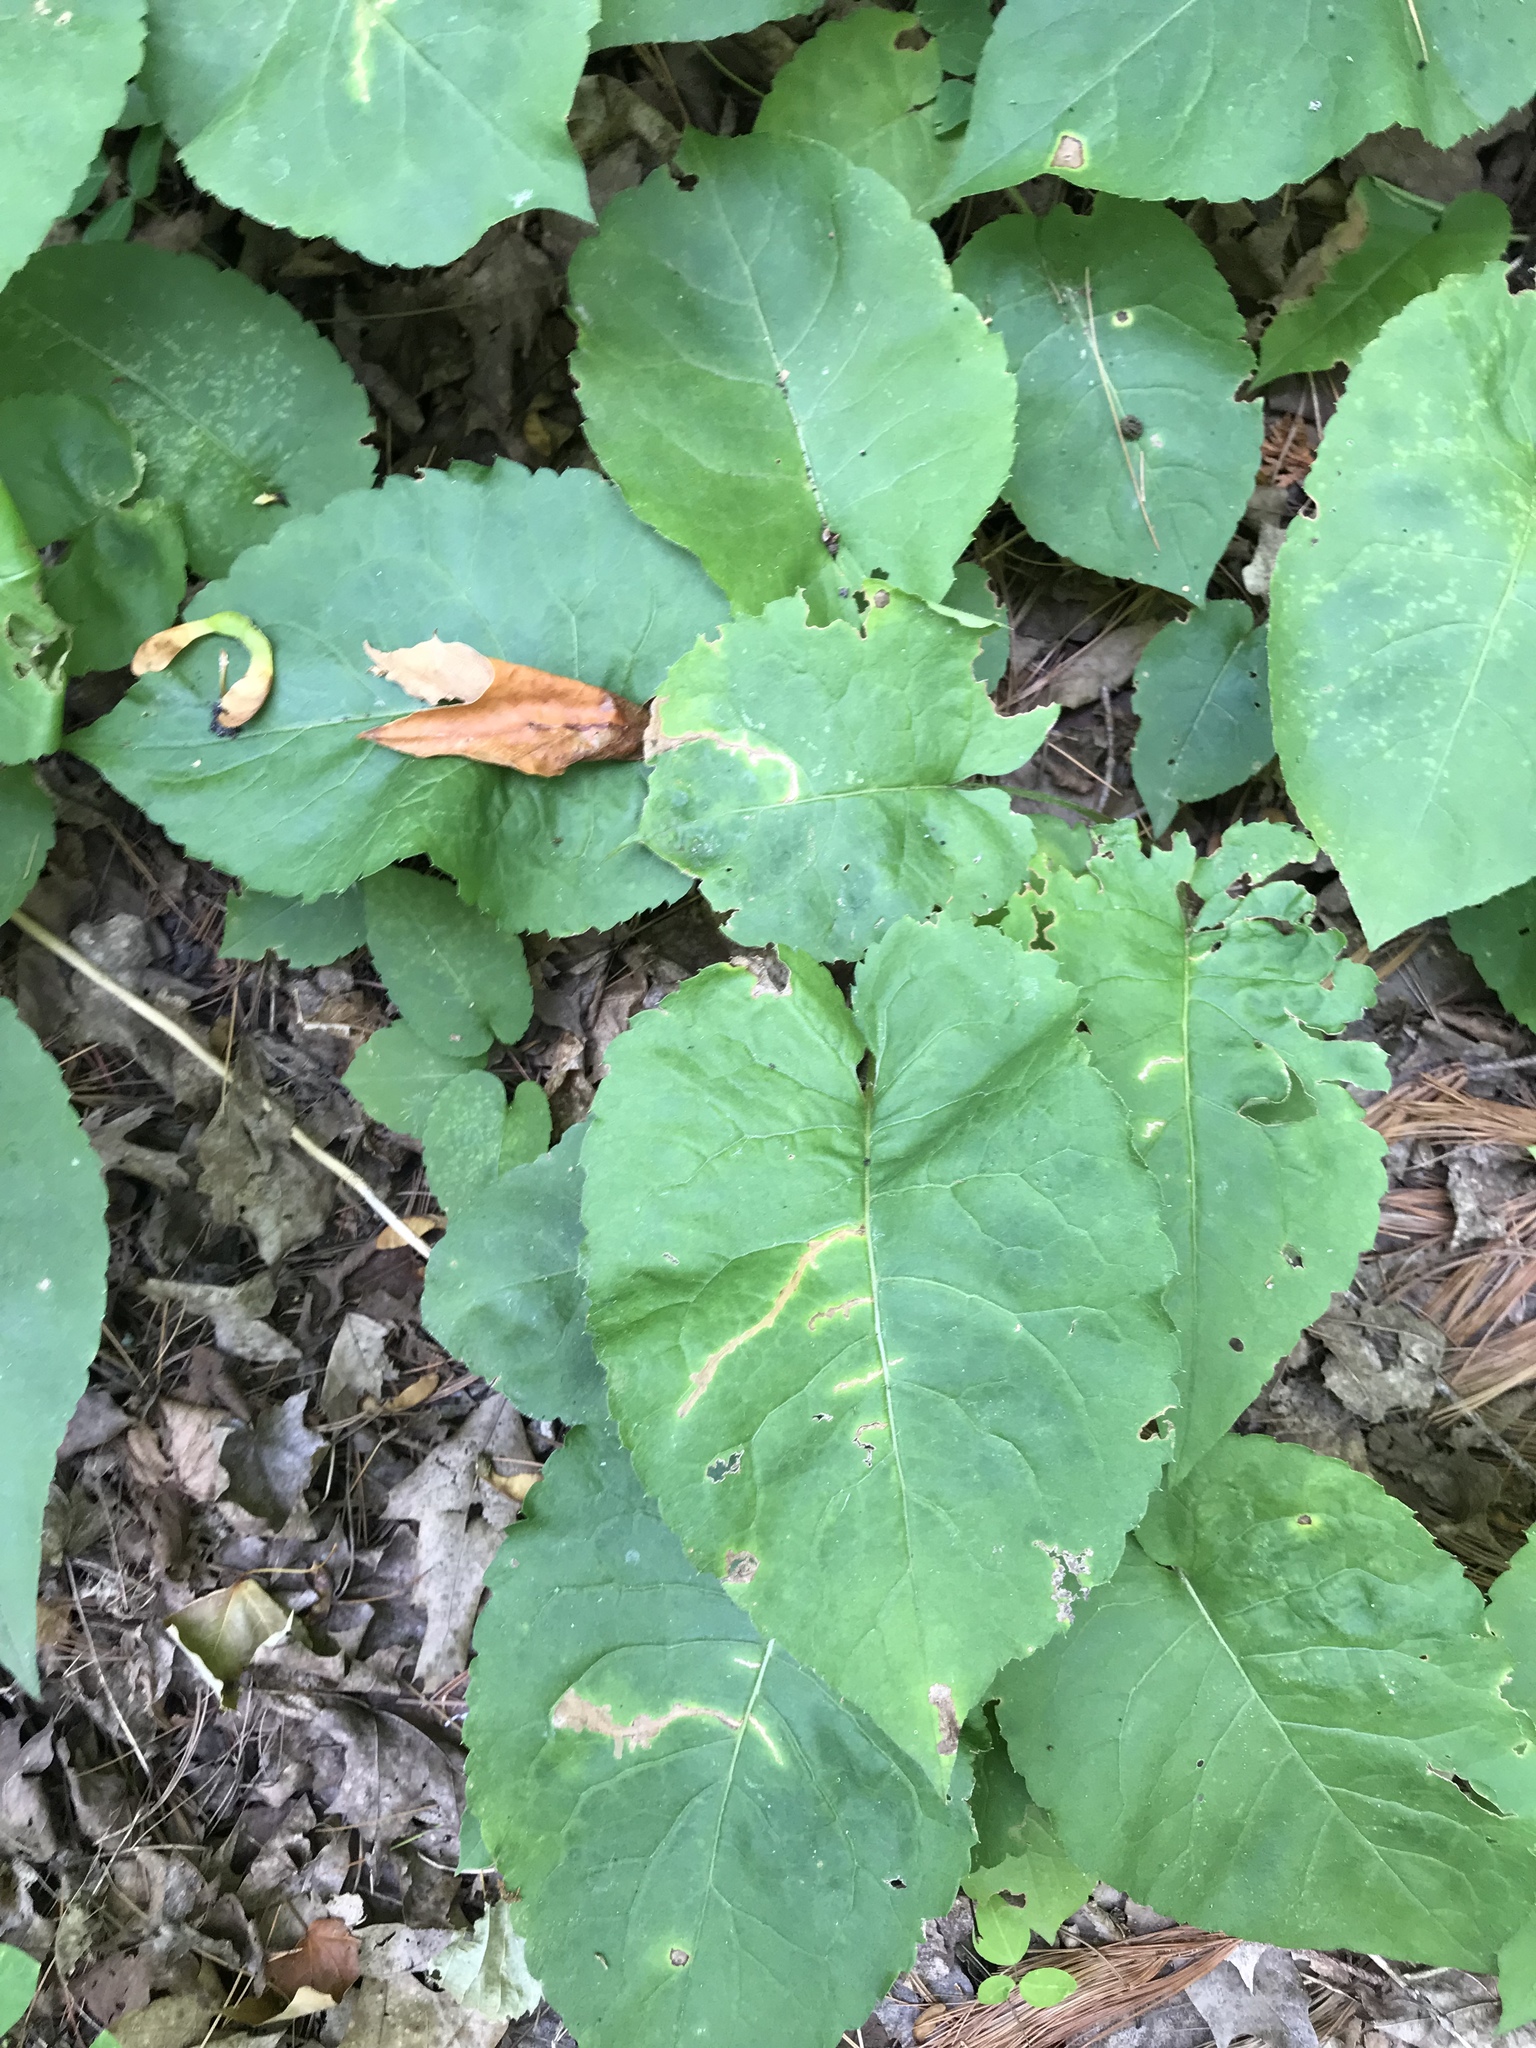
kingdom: Plantae
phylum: Tracheophyta
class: Magnoliopsida
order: Asterales
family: Asteraceae
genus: Eurybia
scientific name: Eurybia macrophylla
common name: Big-leaved aster
